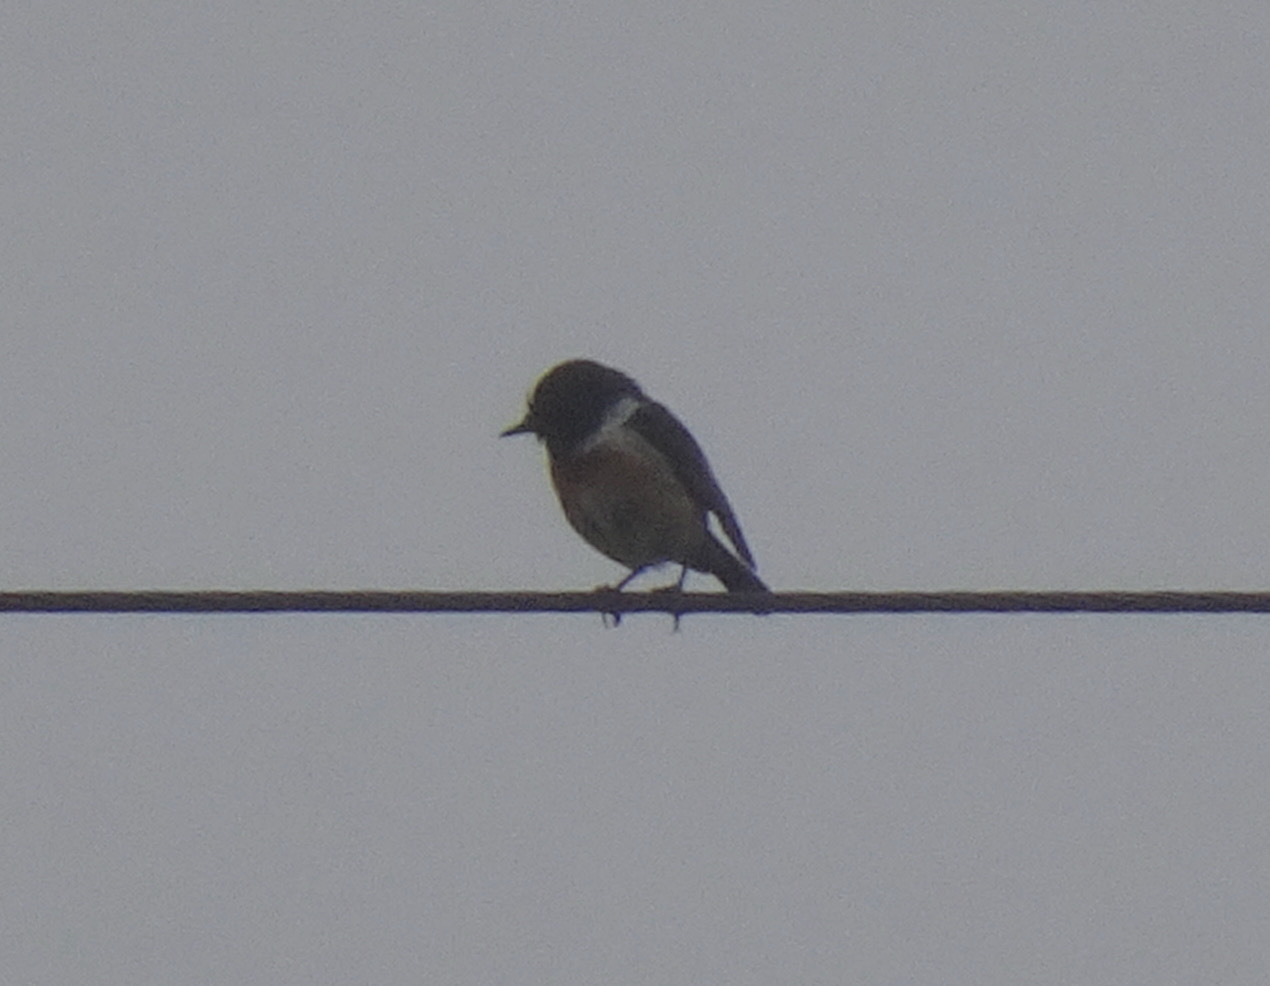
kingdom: Animalia
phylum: Chordata
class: Aves
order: Passeriformes
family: Muscicapidae
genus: Saxicola
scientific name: Saxicola rubicola
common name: European stonechat
